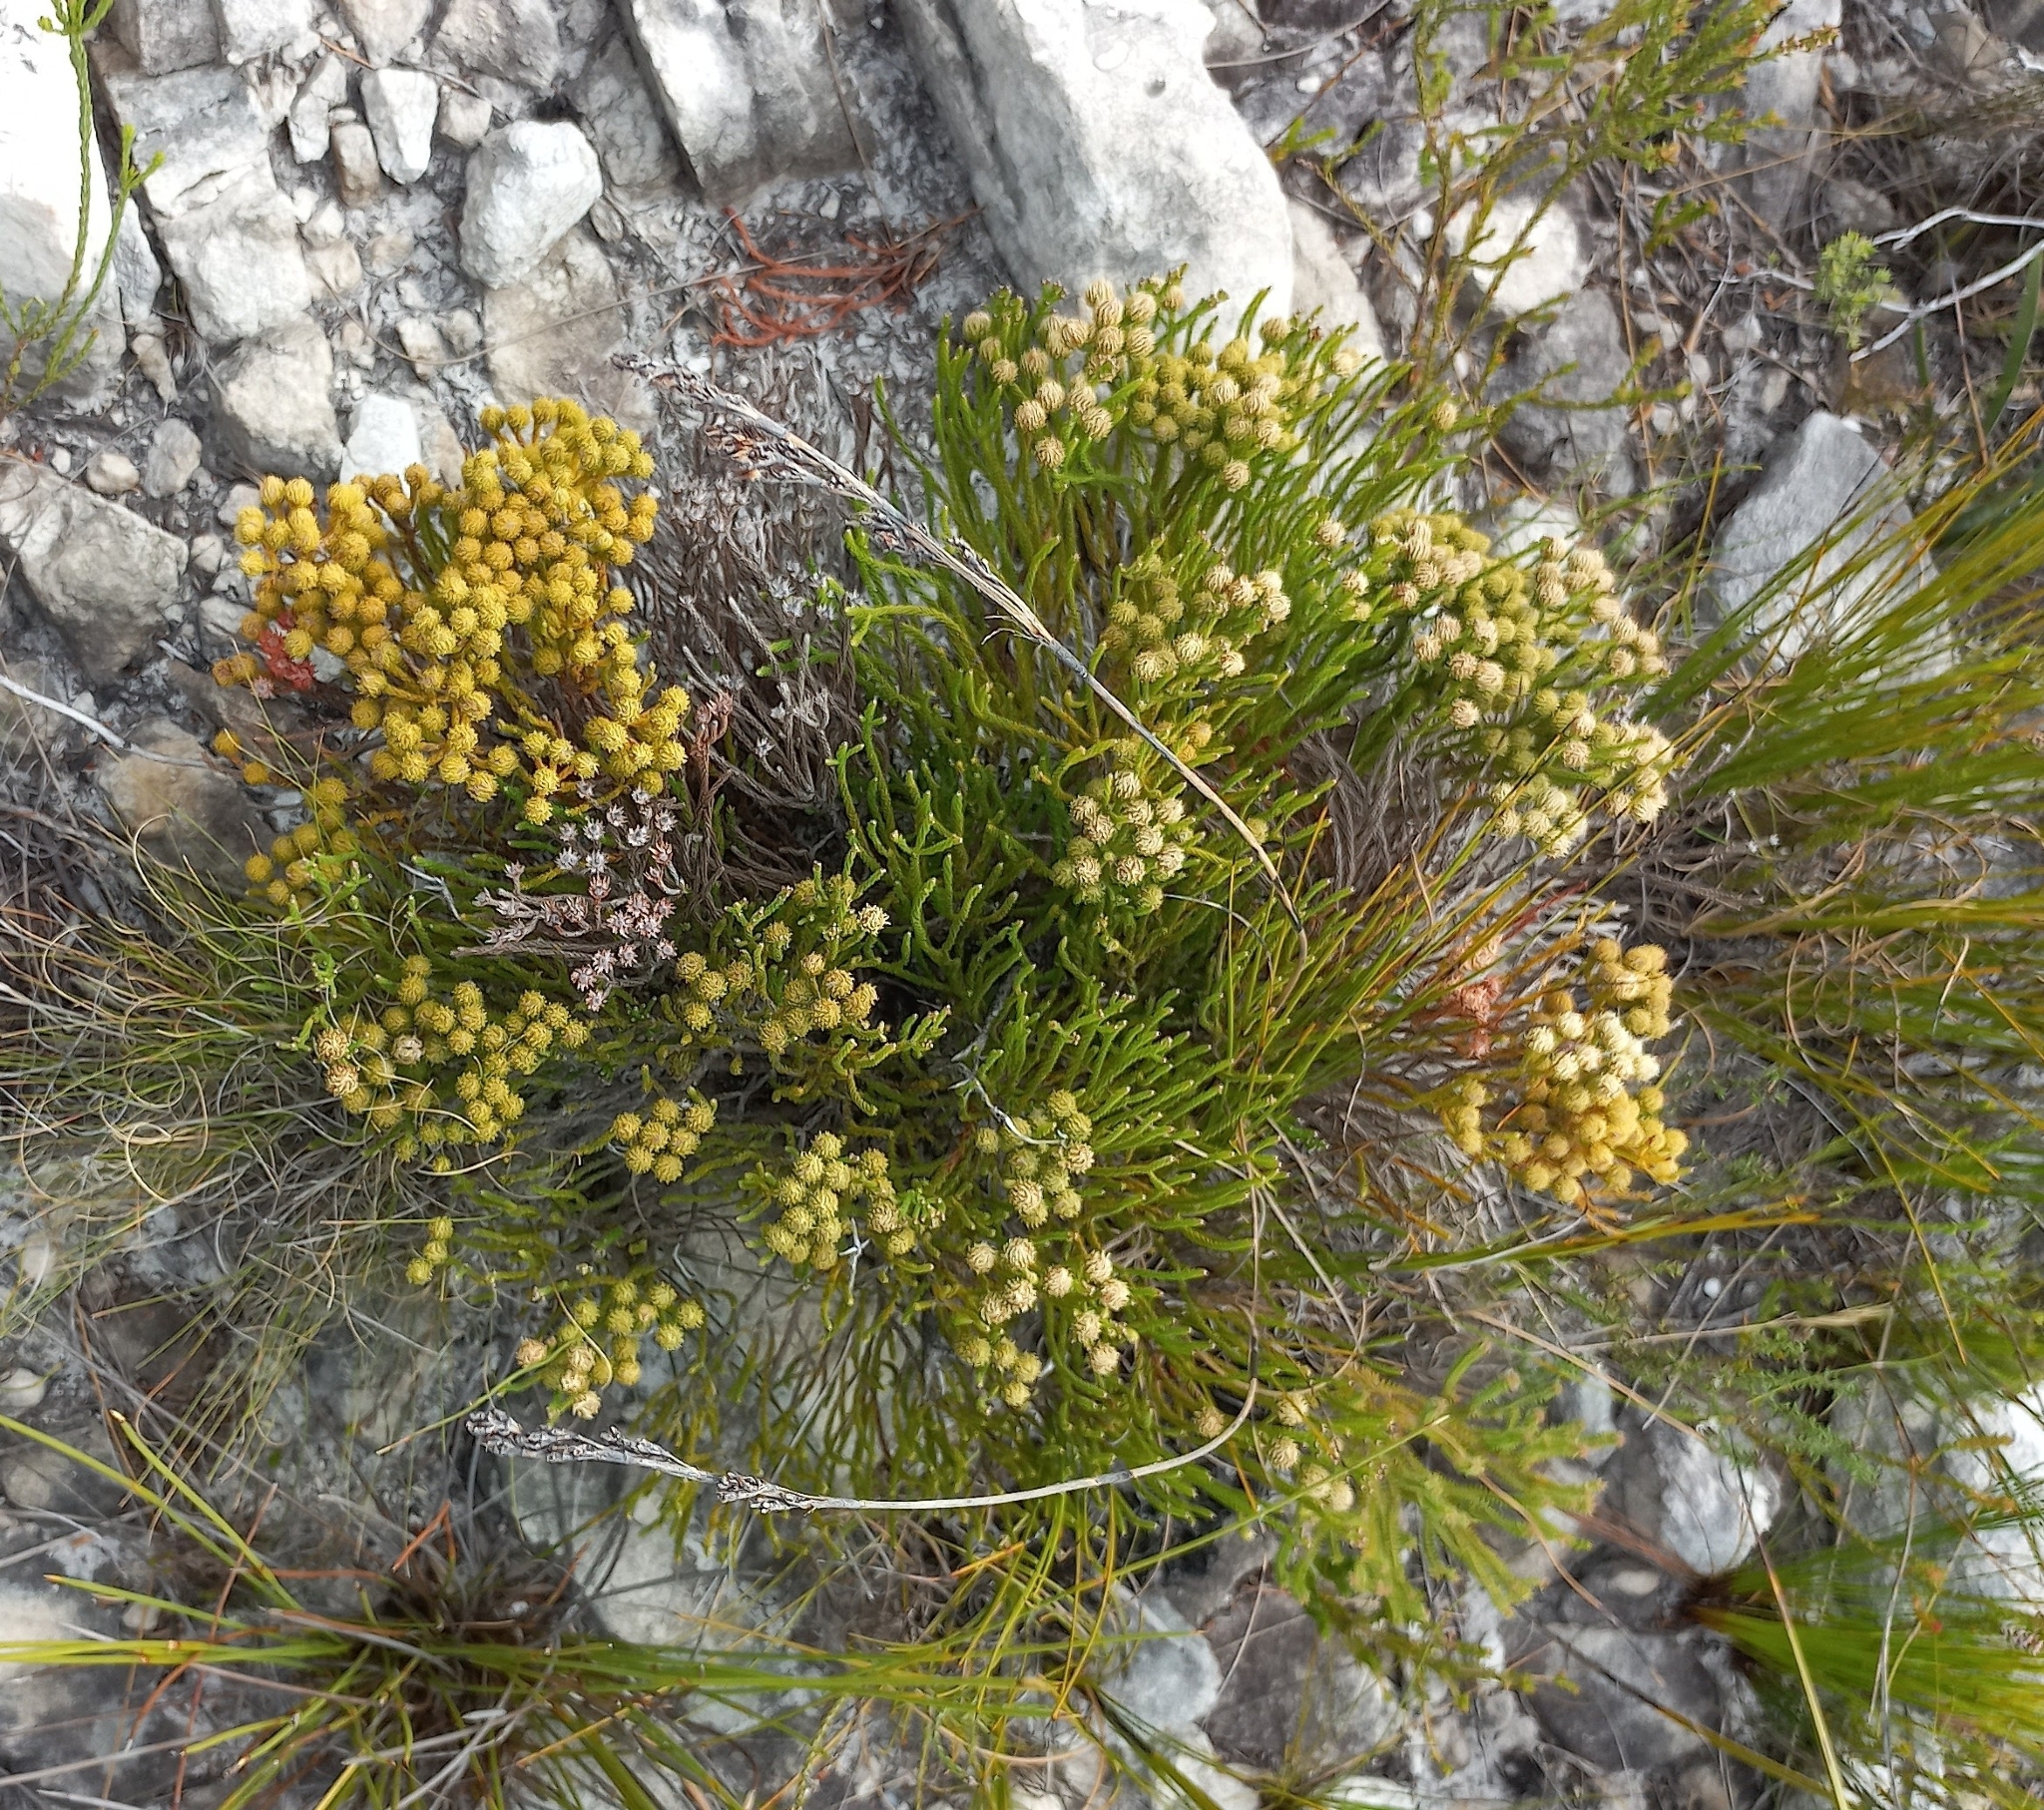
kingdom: Plantae
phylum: Tracheophyta
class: Magnoliopsida
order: Bruniales
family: Bruniaceae
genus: Brunia
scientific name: Brunia paleacea
